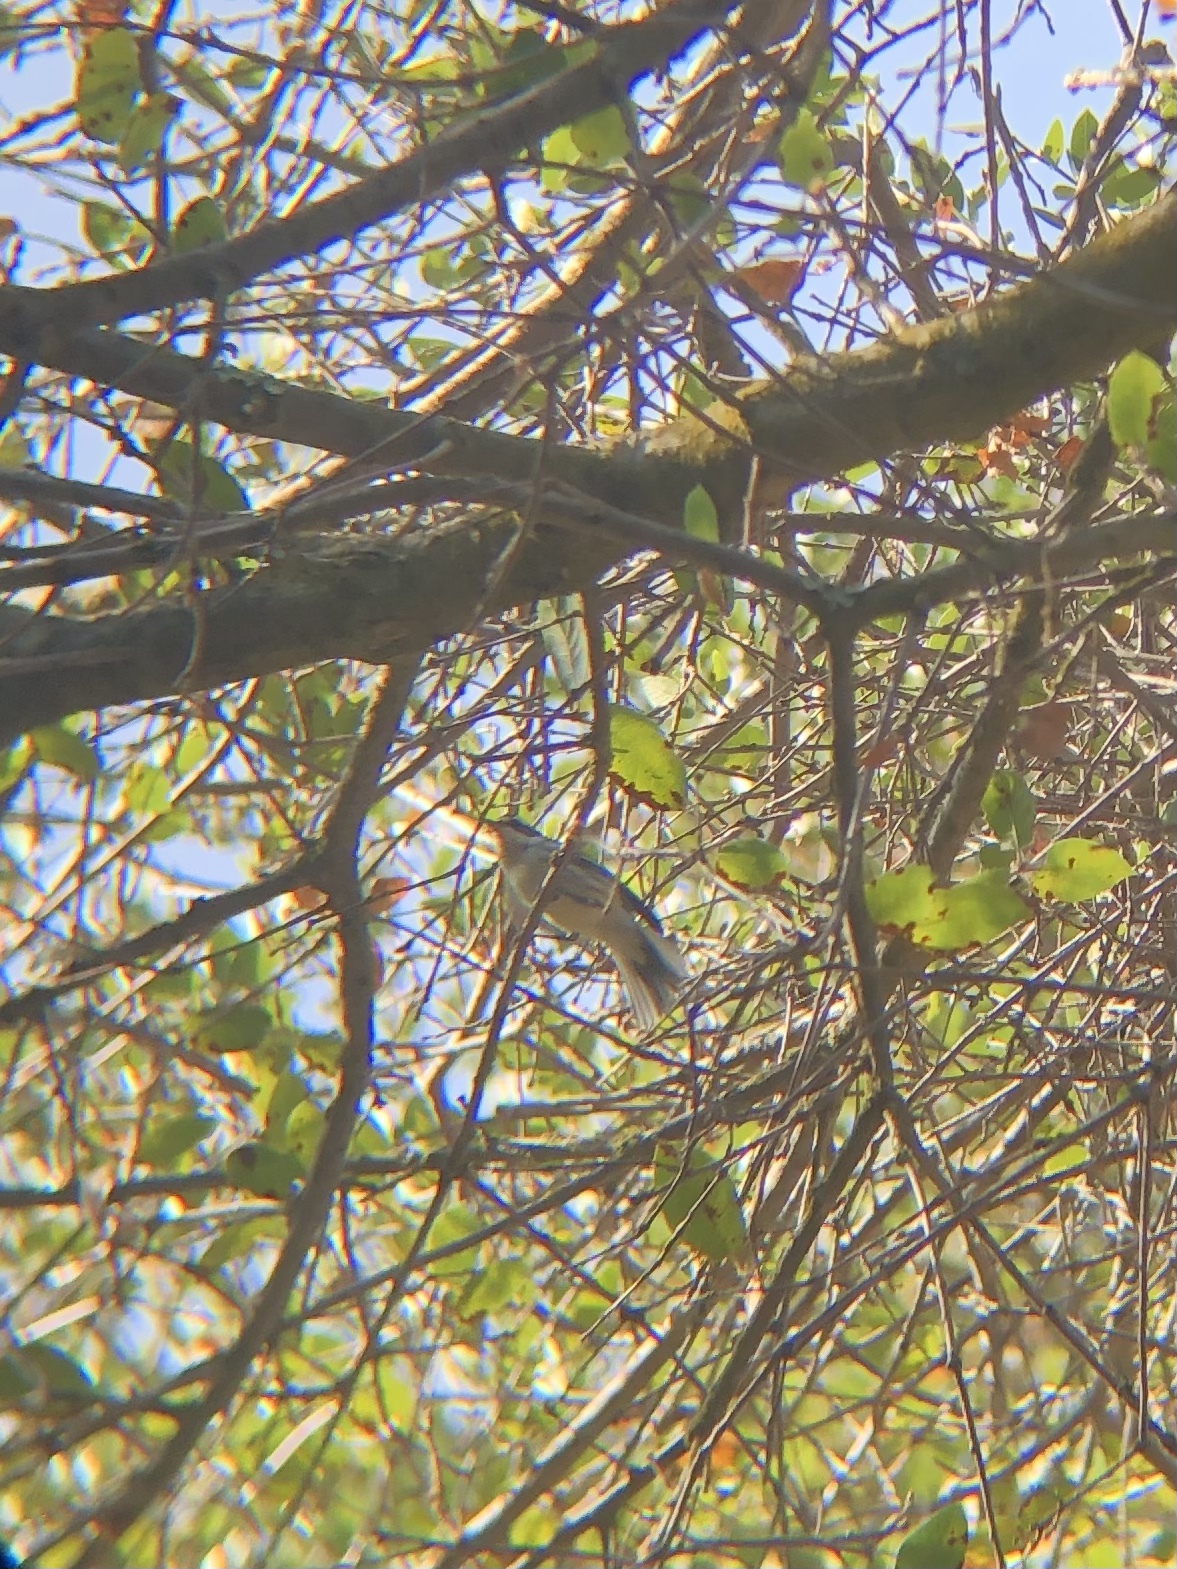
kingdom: Animalia
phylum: Chordata
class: Aves
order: Passeriformes
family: Parulidae
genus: Setophaga
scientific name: Setophaga nigrescens
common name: Black-throated gray warbler
